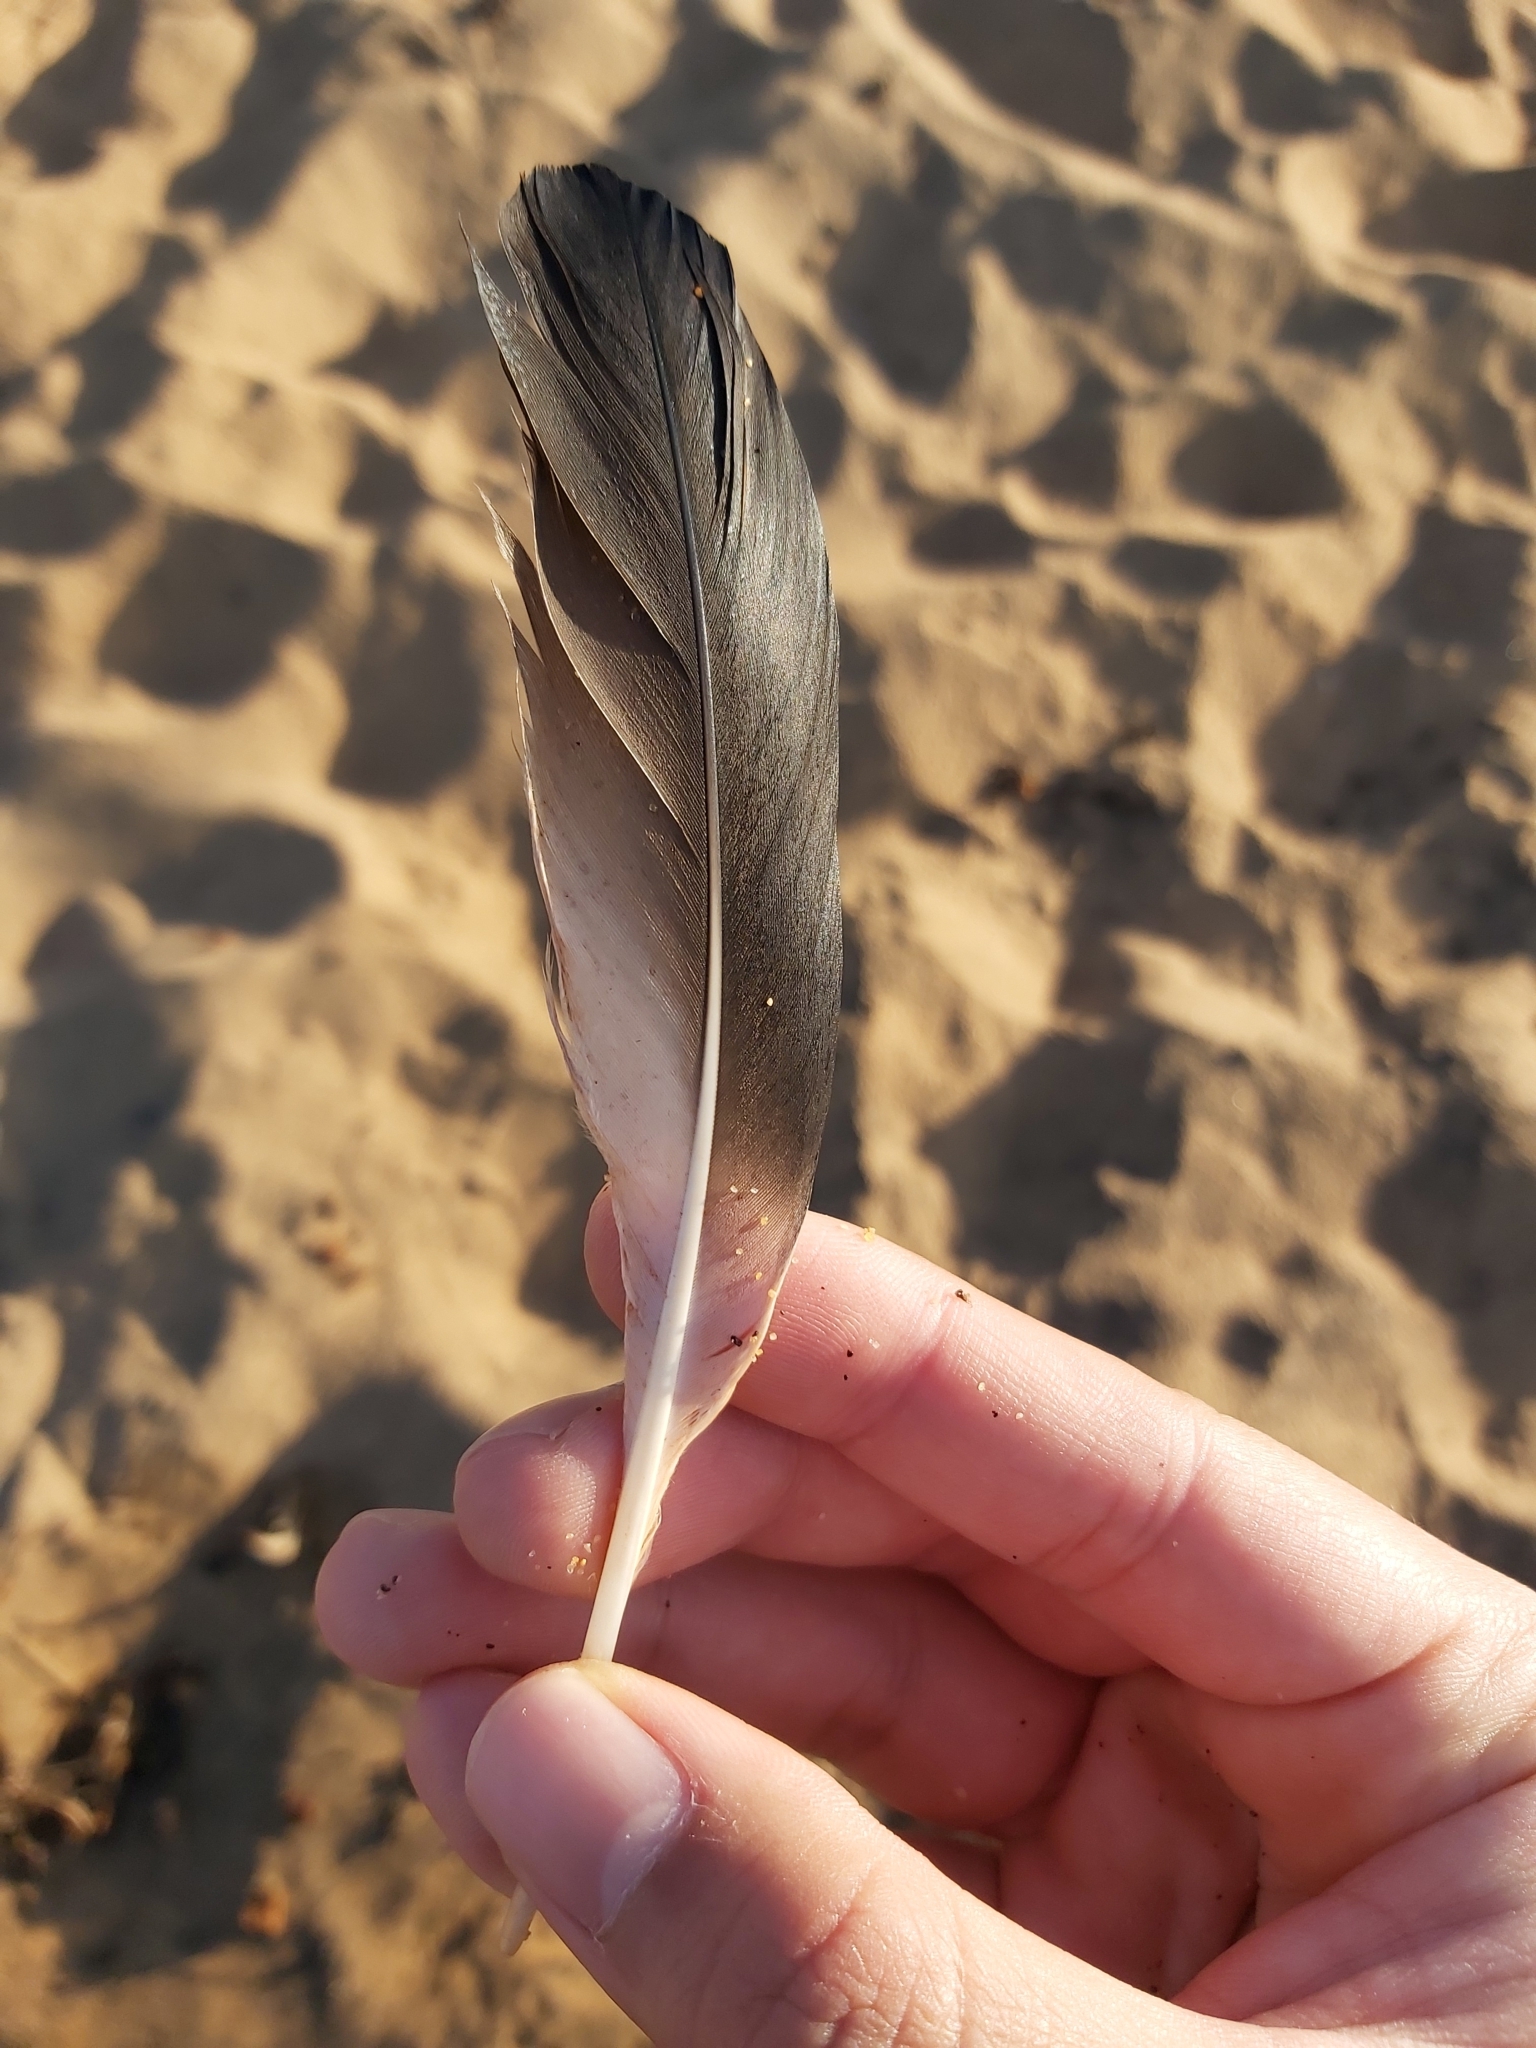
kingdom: Animalia
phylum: Chordata
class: Aves
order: Suliformes
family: Sulidae
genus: Morus
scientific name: Morus serrator
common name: Australasian gannet
